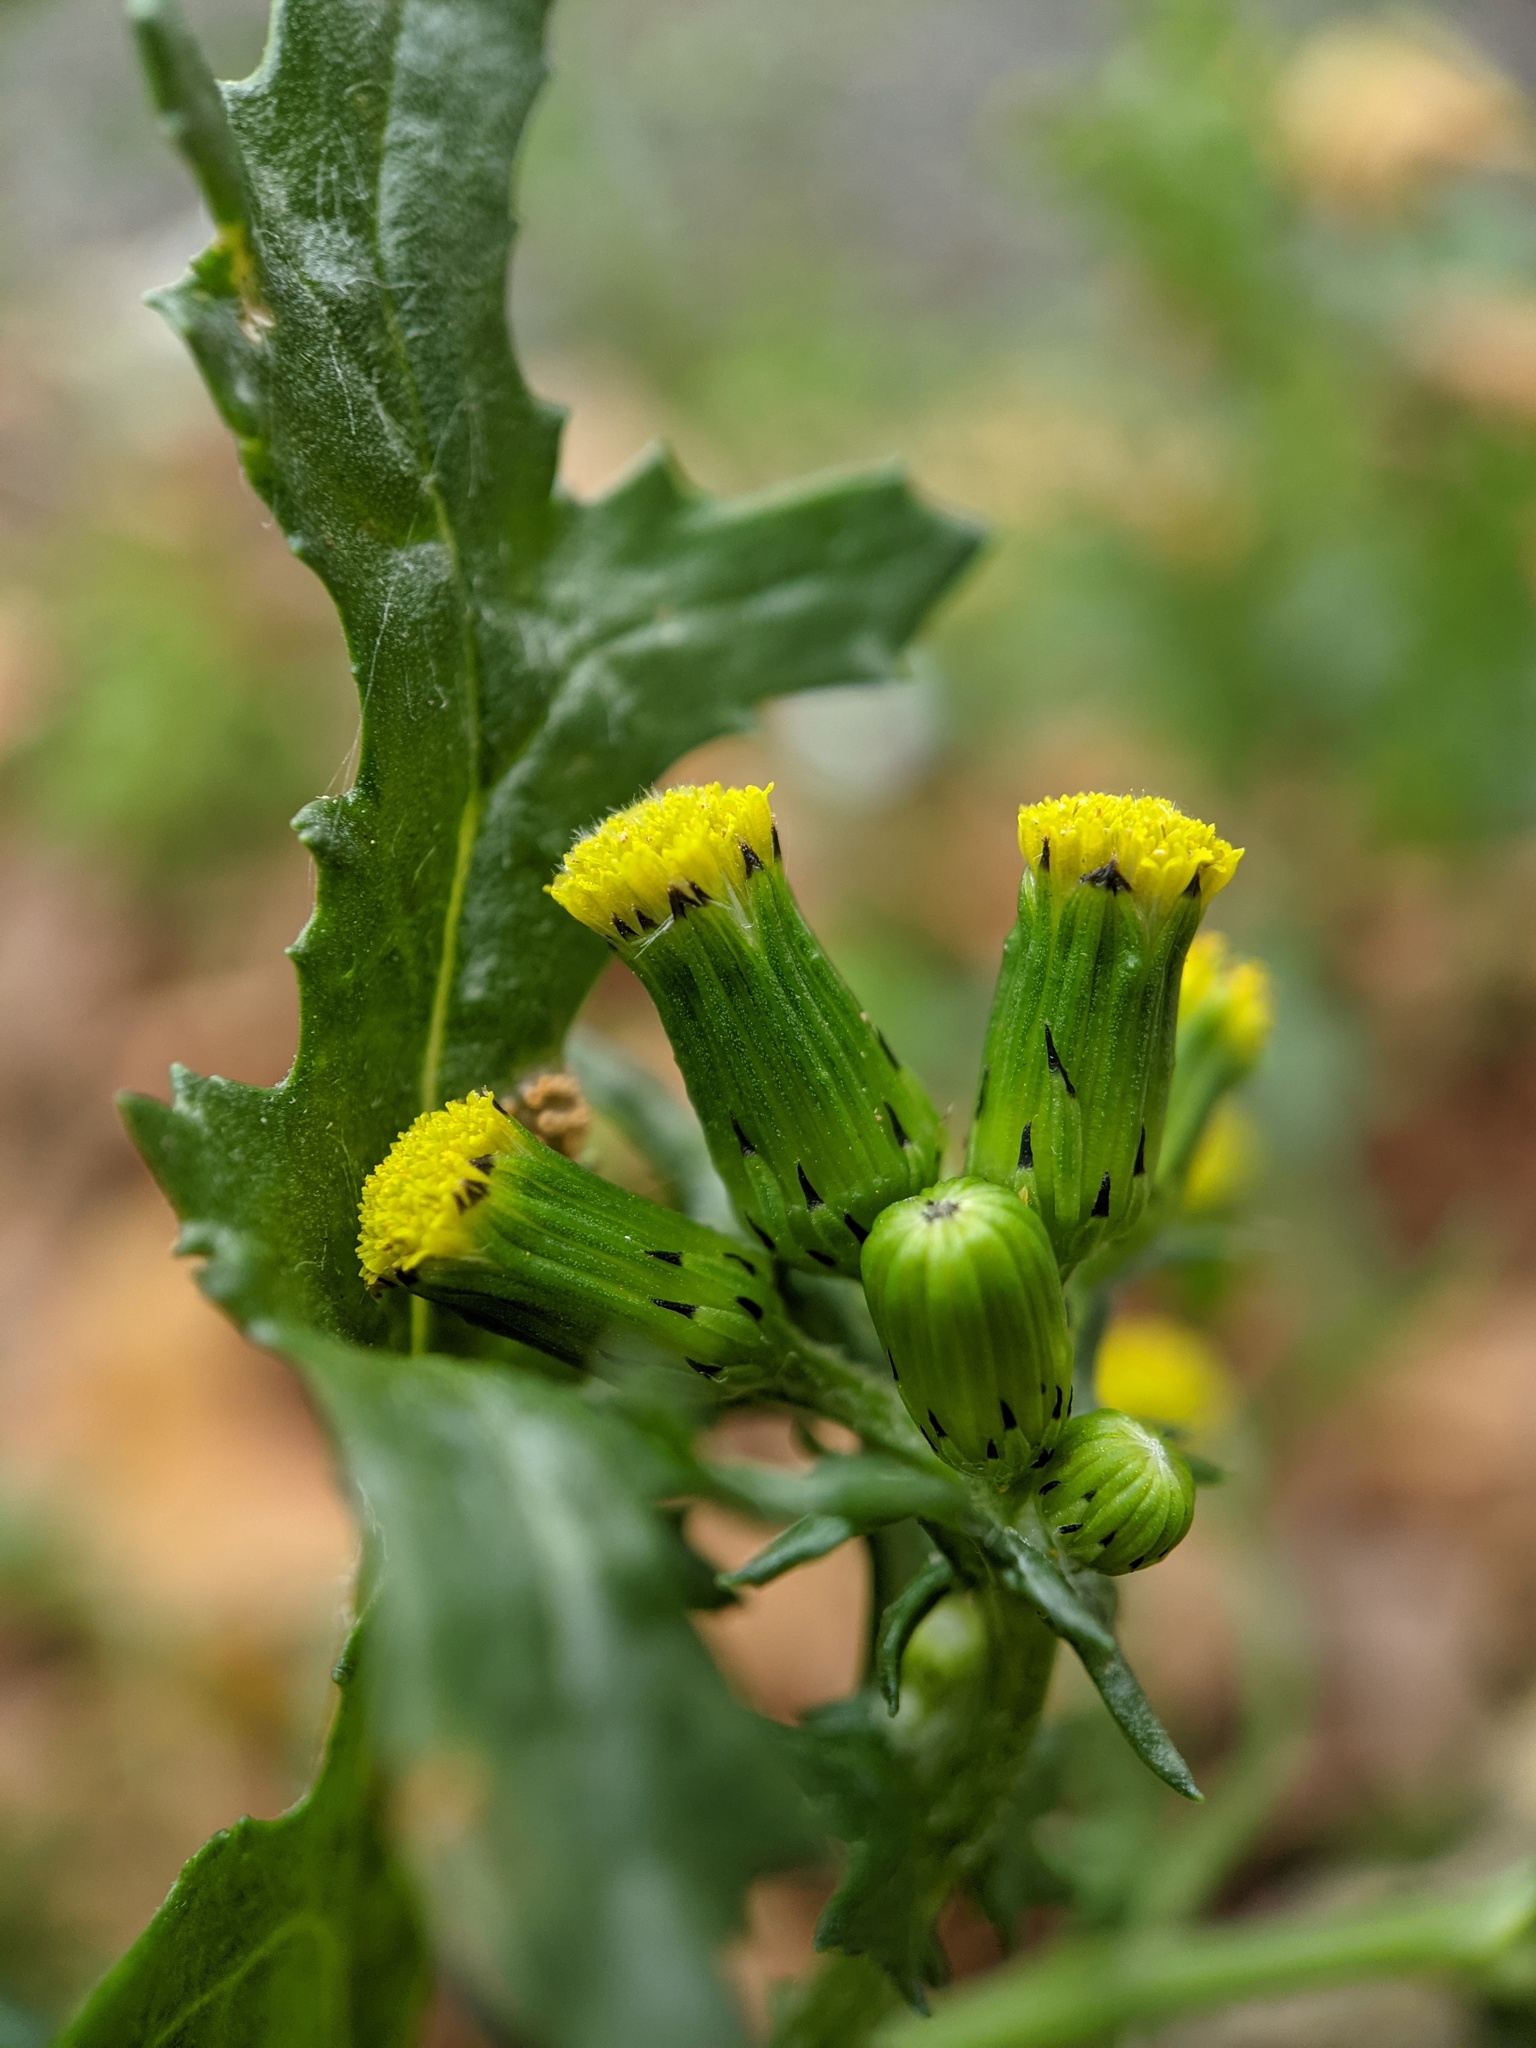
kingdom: Plantae
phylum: Tracheophyta
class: Magnoliopsida
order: Asterales
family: Asteraceae
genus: Senecio
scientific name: Senecio vulgaris
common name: Old-man-in-the-spring
